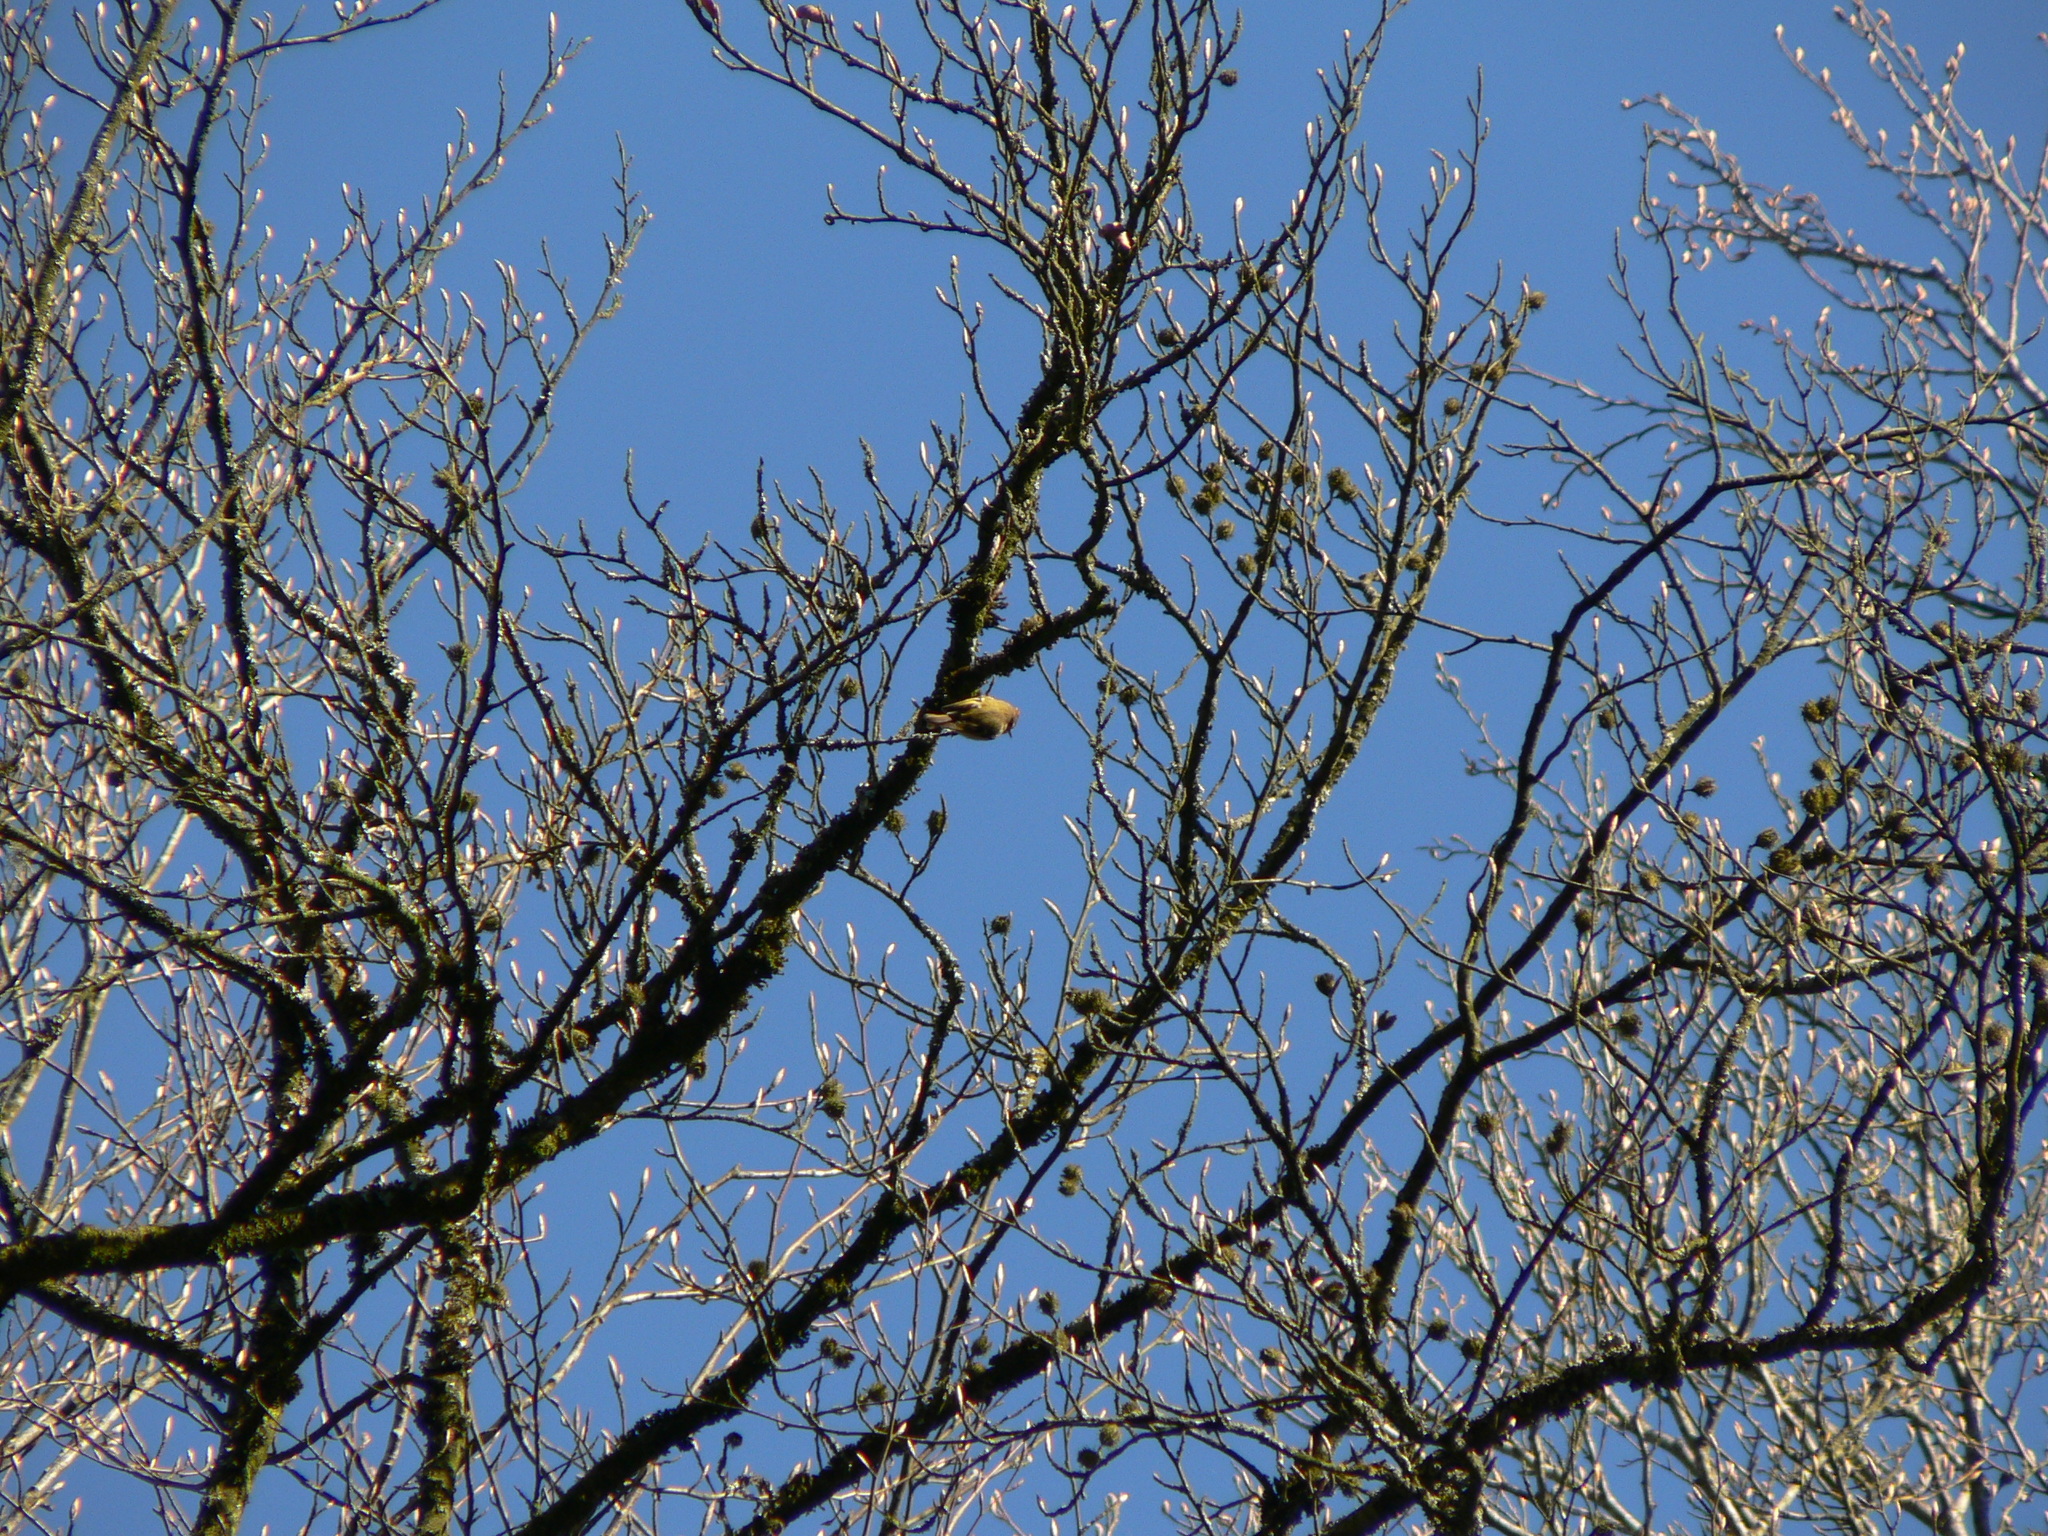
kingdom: Animalia
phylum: Chordata
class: Aves
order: Passeriformes
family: Regulidae
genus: Regulus
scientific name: Regulus ignicapilla
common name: Firecrest
